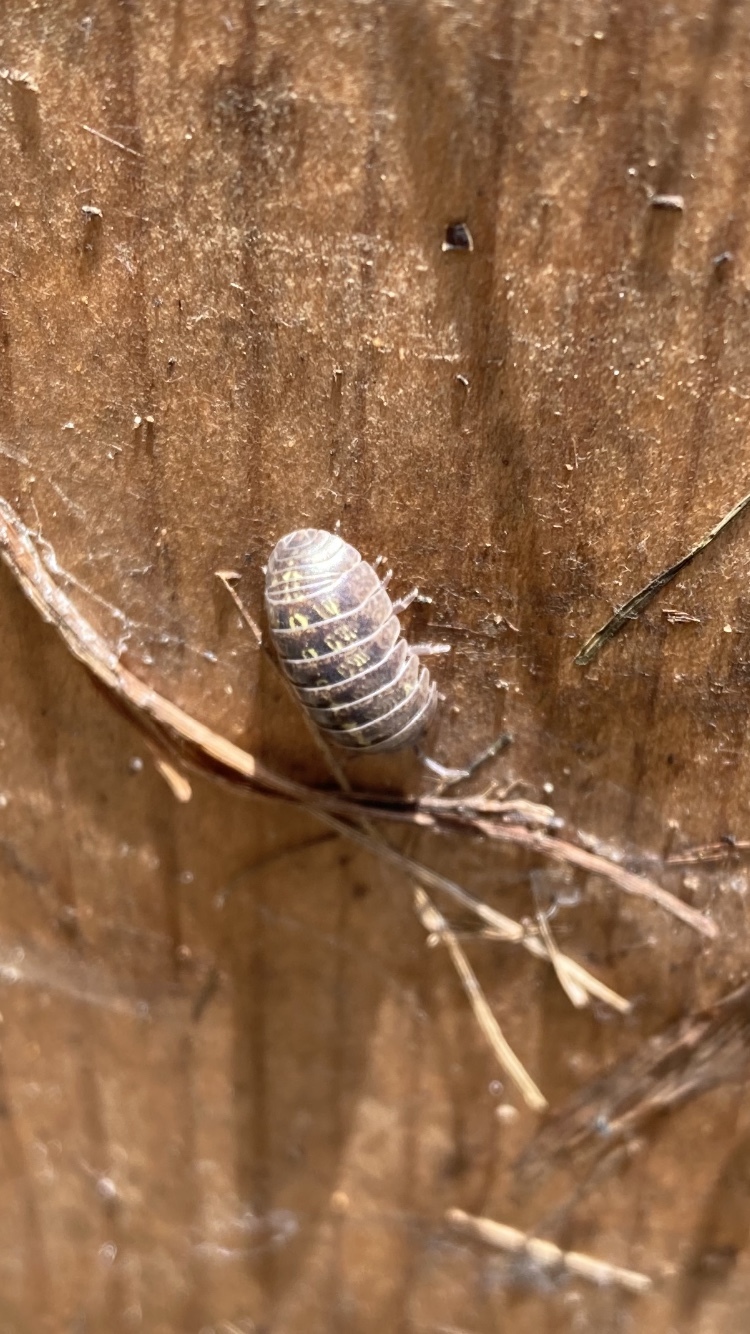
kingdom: Animalia
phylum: Arthropoda
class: Malacostraca
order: Isopoda
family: Armadillidiidae
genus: Armadillidium
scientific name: Armadillidium vulgare
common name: Common pill woodlouse
